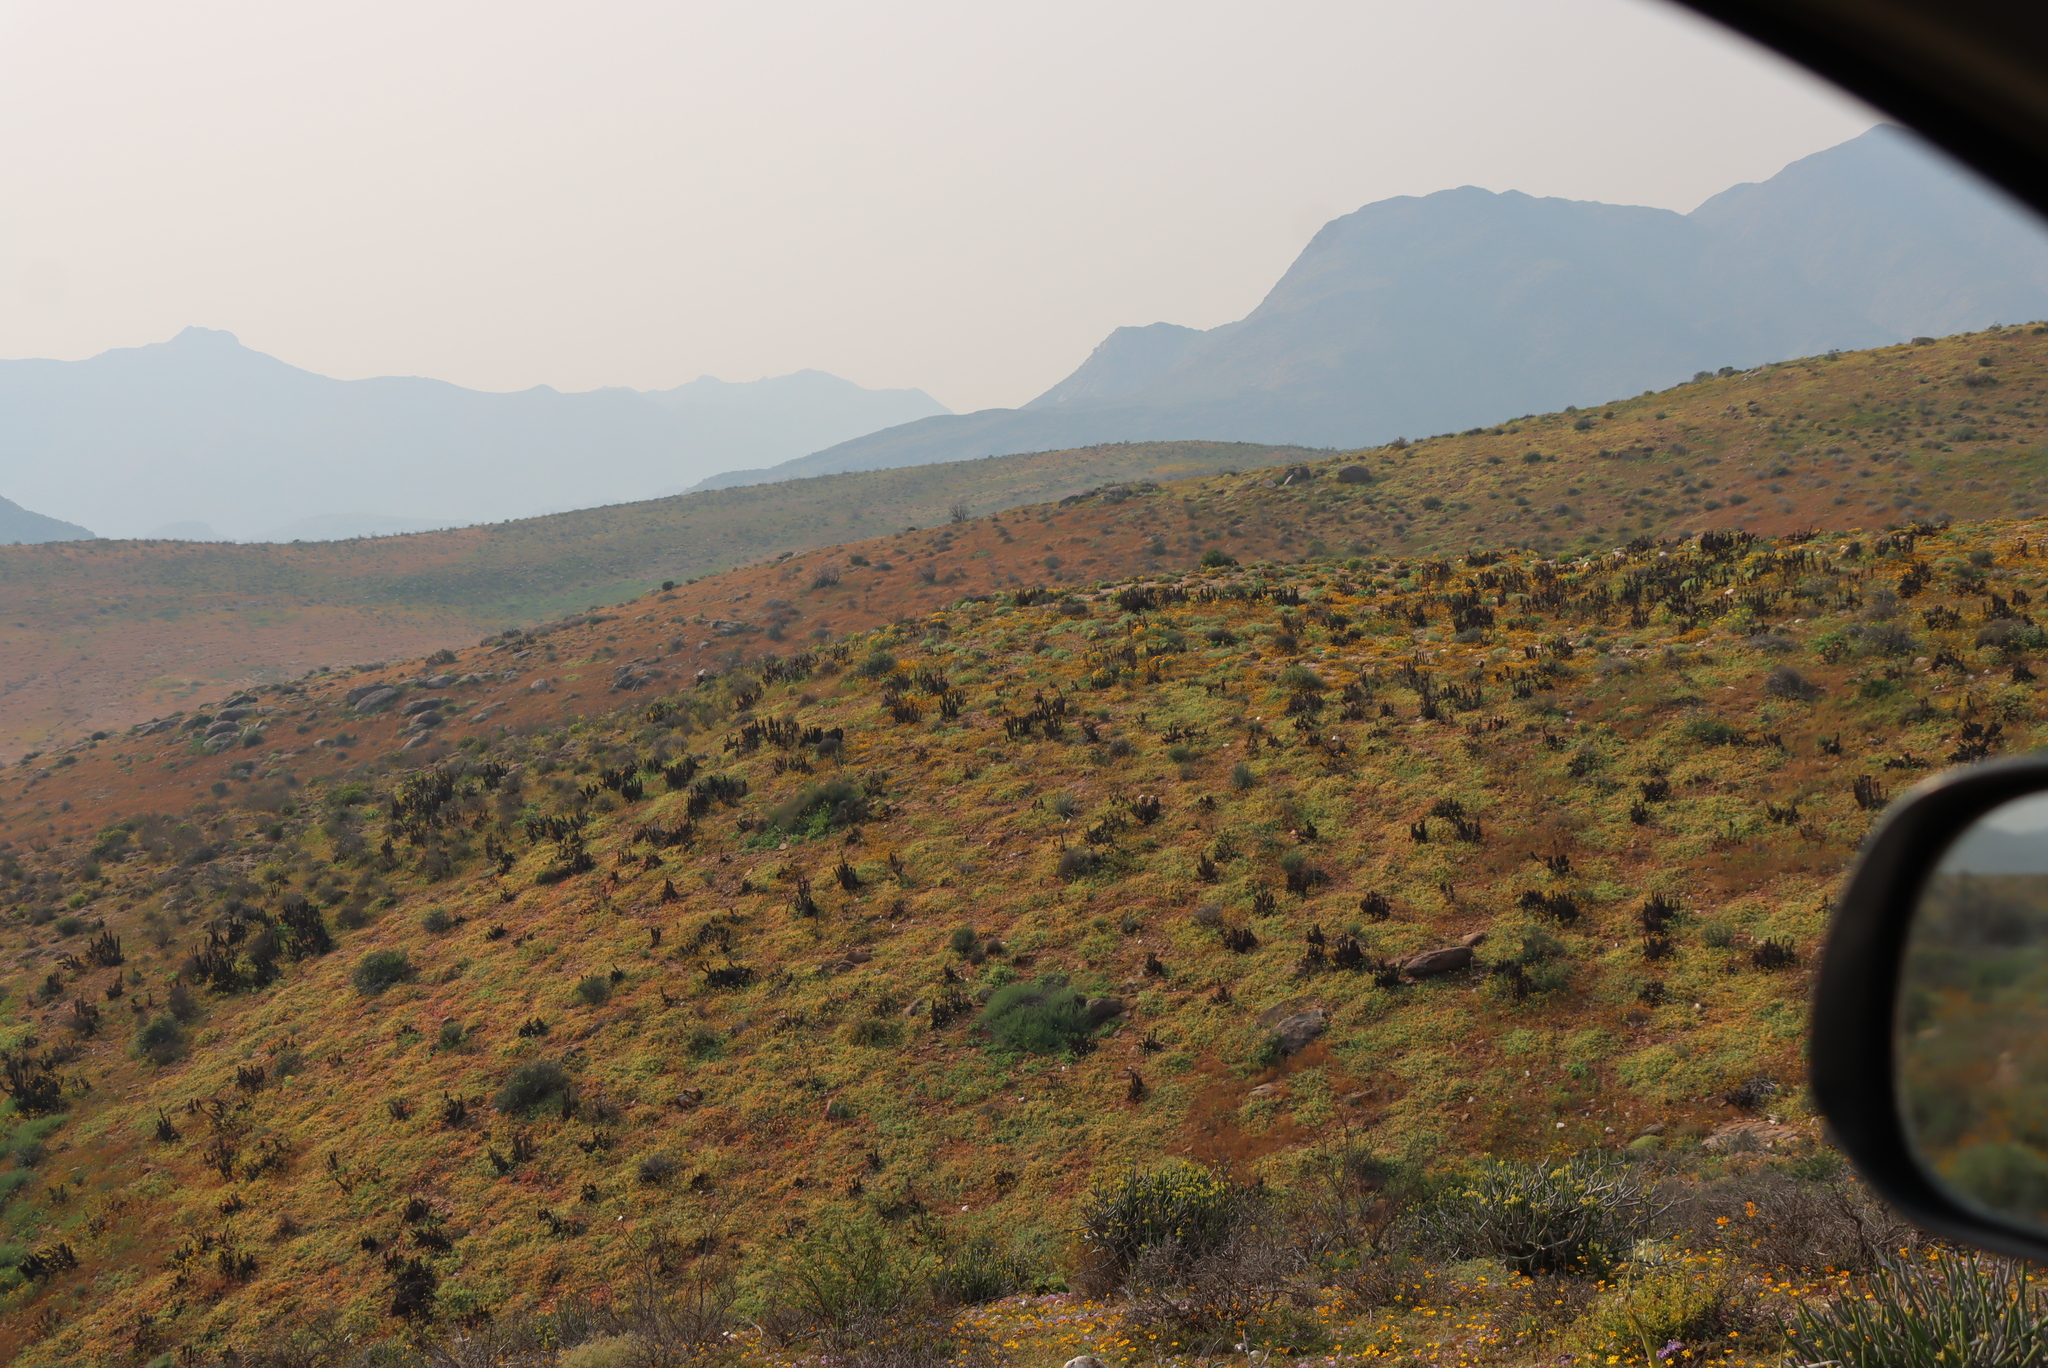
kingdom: Plantae
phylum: Tracheophyta
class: Liliopsida
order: Asparagales
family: Asphodelaceae
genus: Aloe
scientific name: Aloe pearsonii
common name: Pearson's aloe
